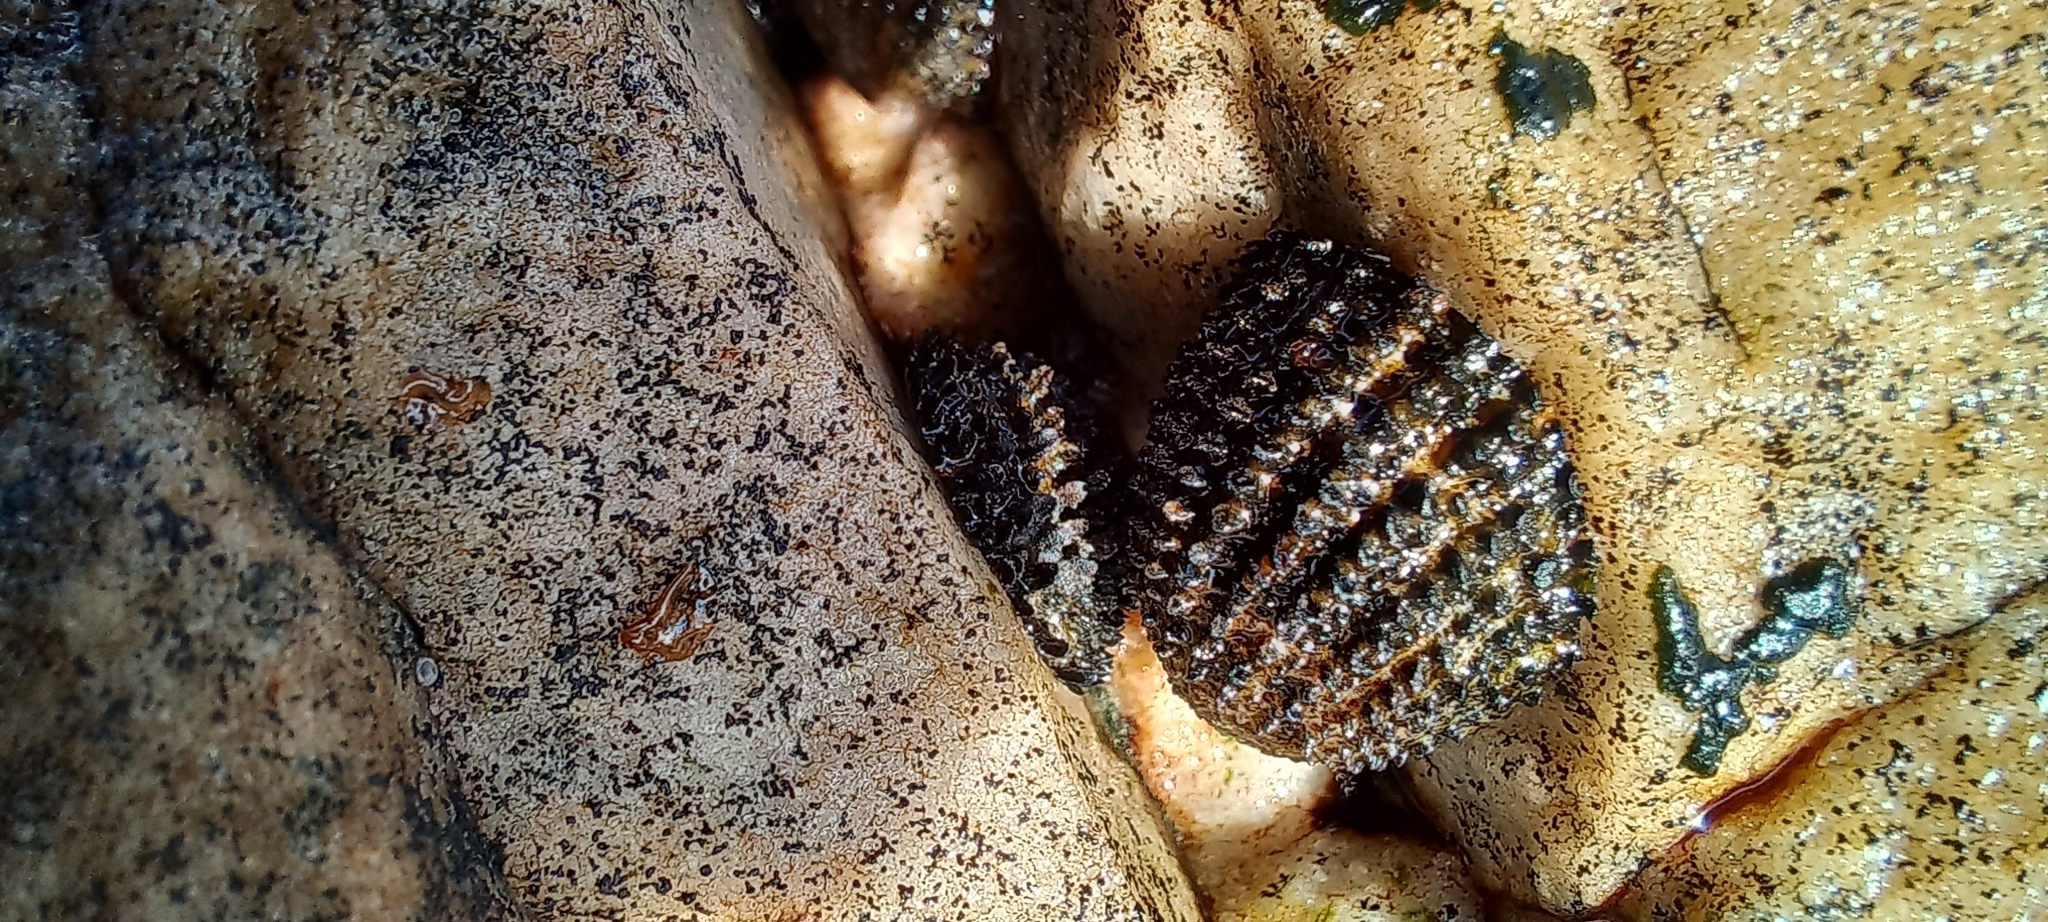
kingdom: Animalia
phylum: Mollusca
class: Gastropoda
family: Patellidae
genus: Helcion
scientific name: Helcion pectunculus
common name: Prickly limpet
